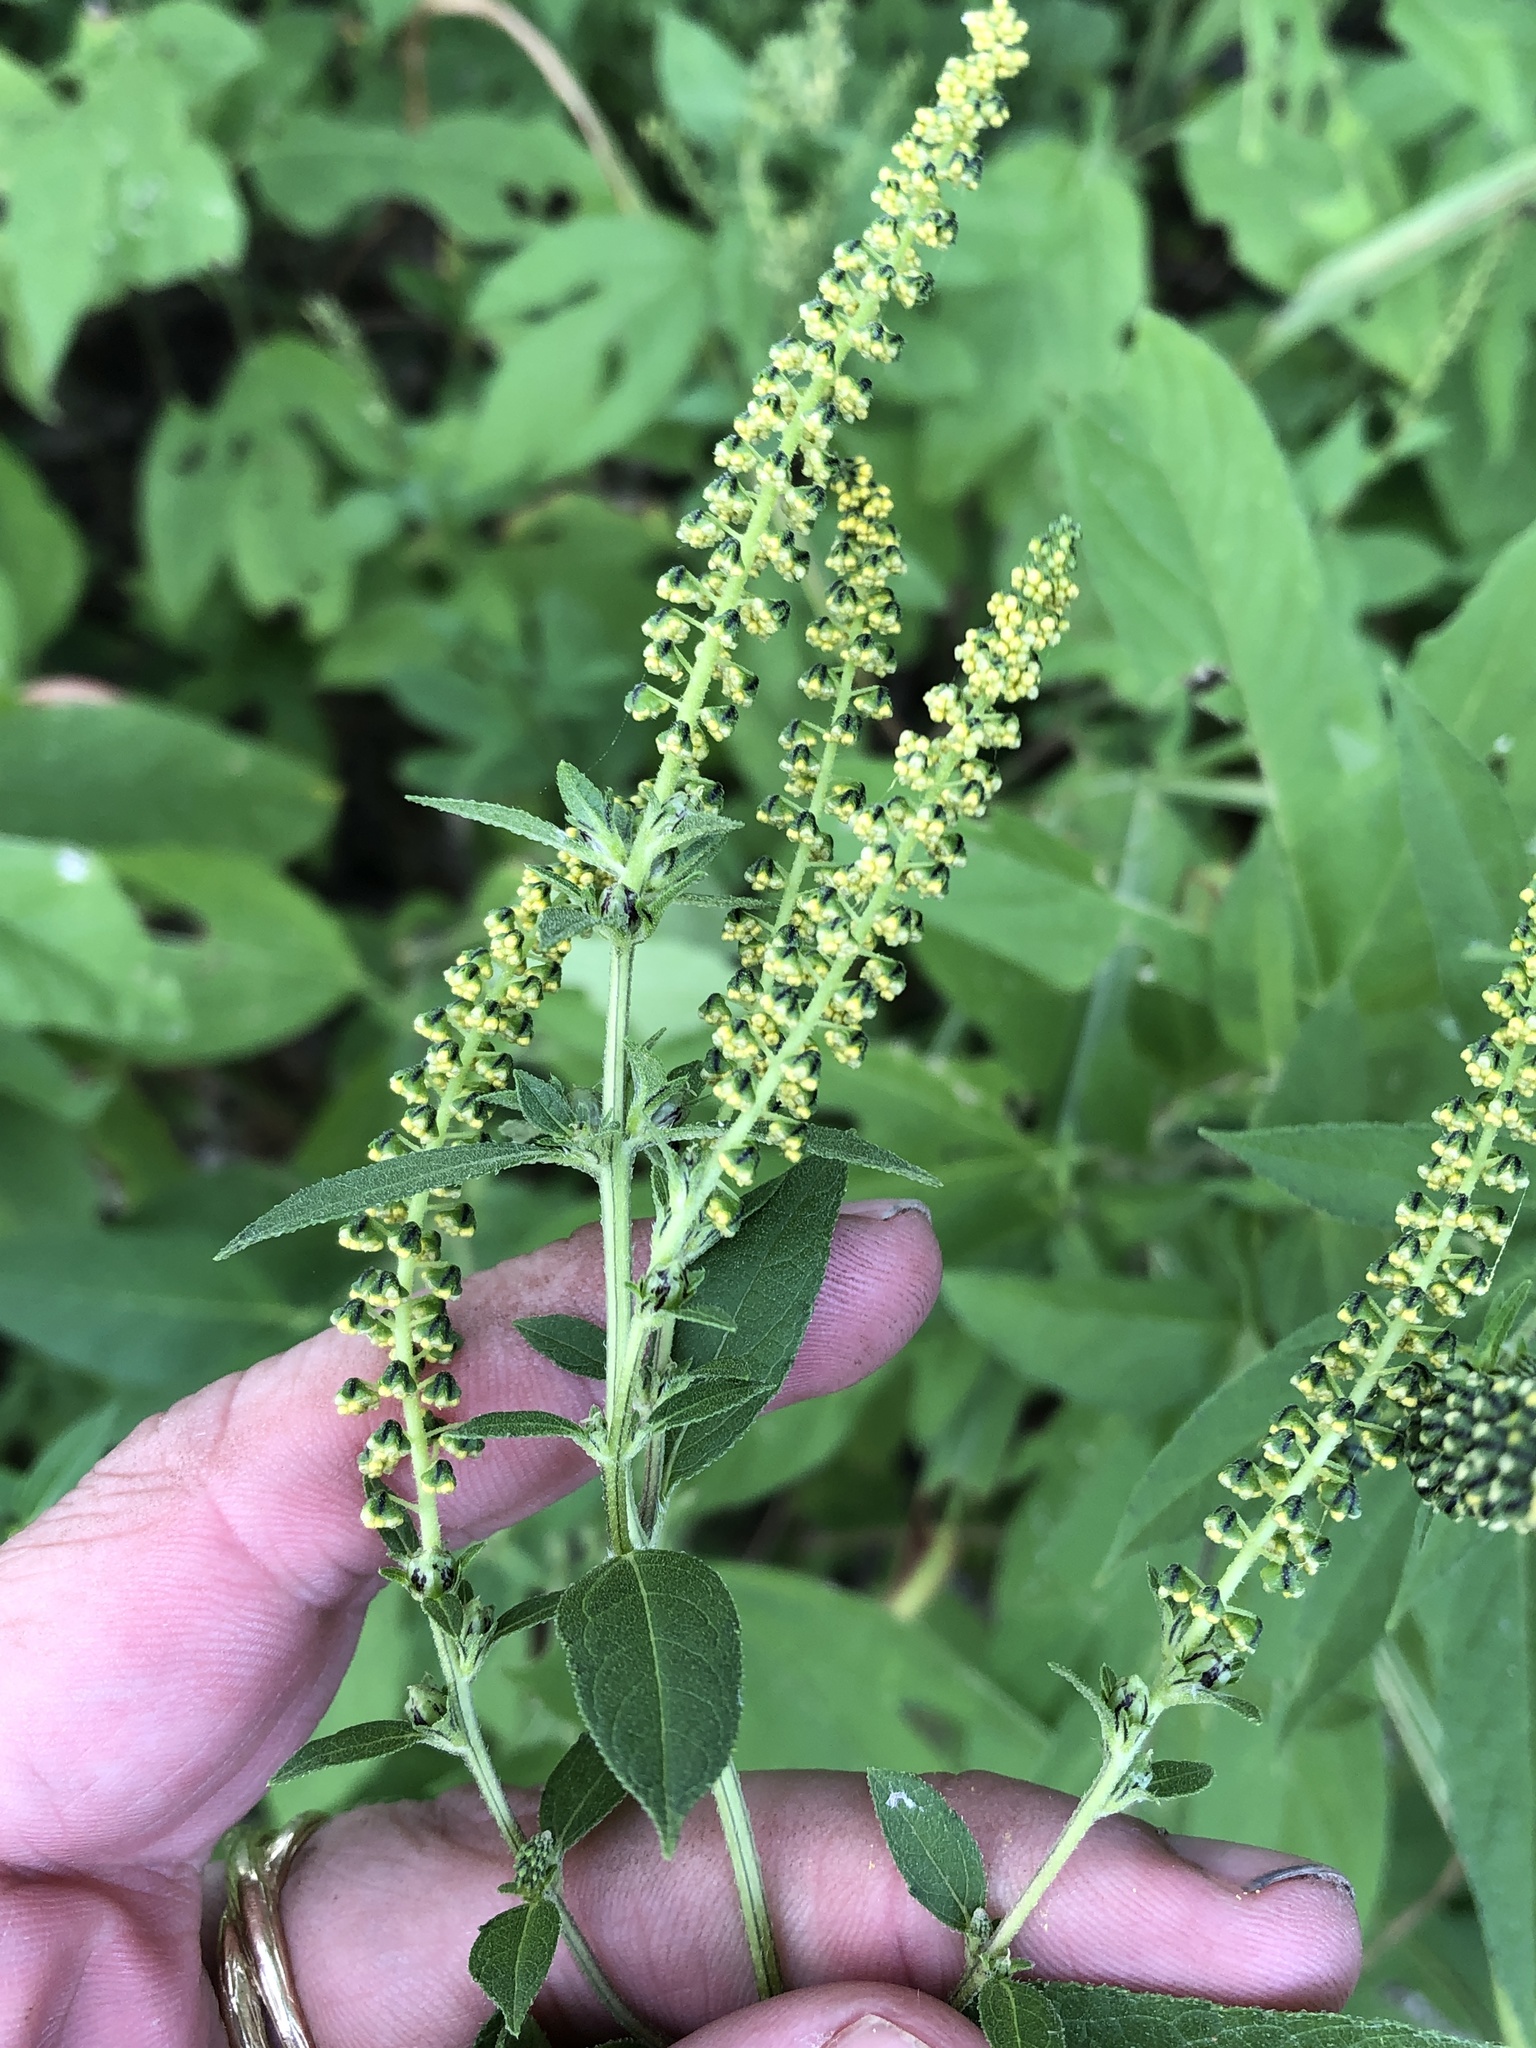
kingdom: Plantae
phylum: Tracheophyta
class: Magnoliopsida
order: Asterales
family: Asteraceae
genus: Ambrosia
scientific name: Ambrosia trifida
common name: Giant ragweed
